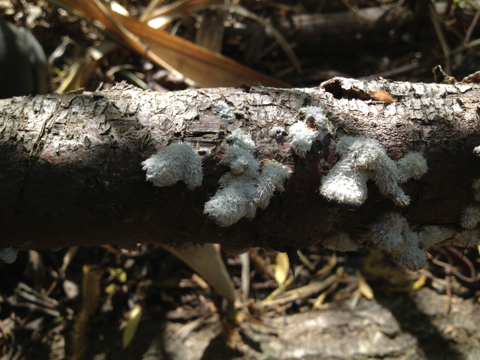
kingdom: Fungi
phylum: Basidiomycota
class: Agaricomycetes
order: Agaricales
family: Schizophyllaceae
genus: Schizophyllum
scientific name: Schizophyllum commune
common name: Common porecrust
